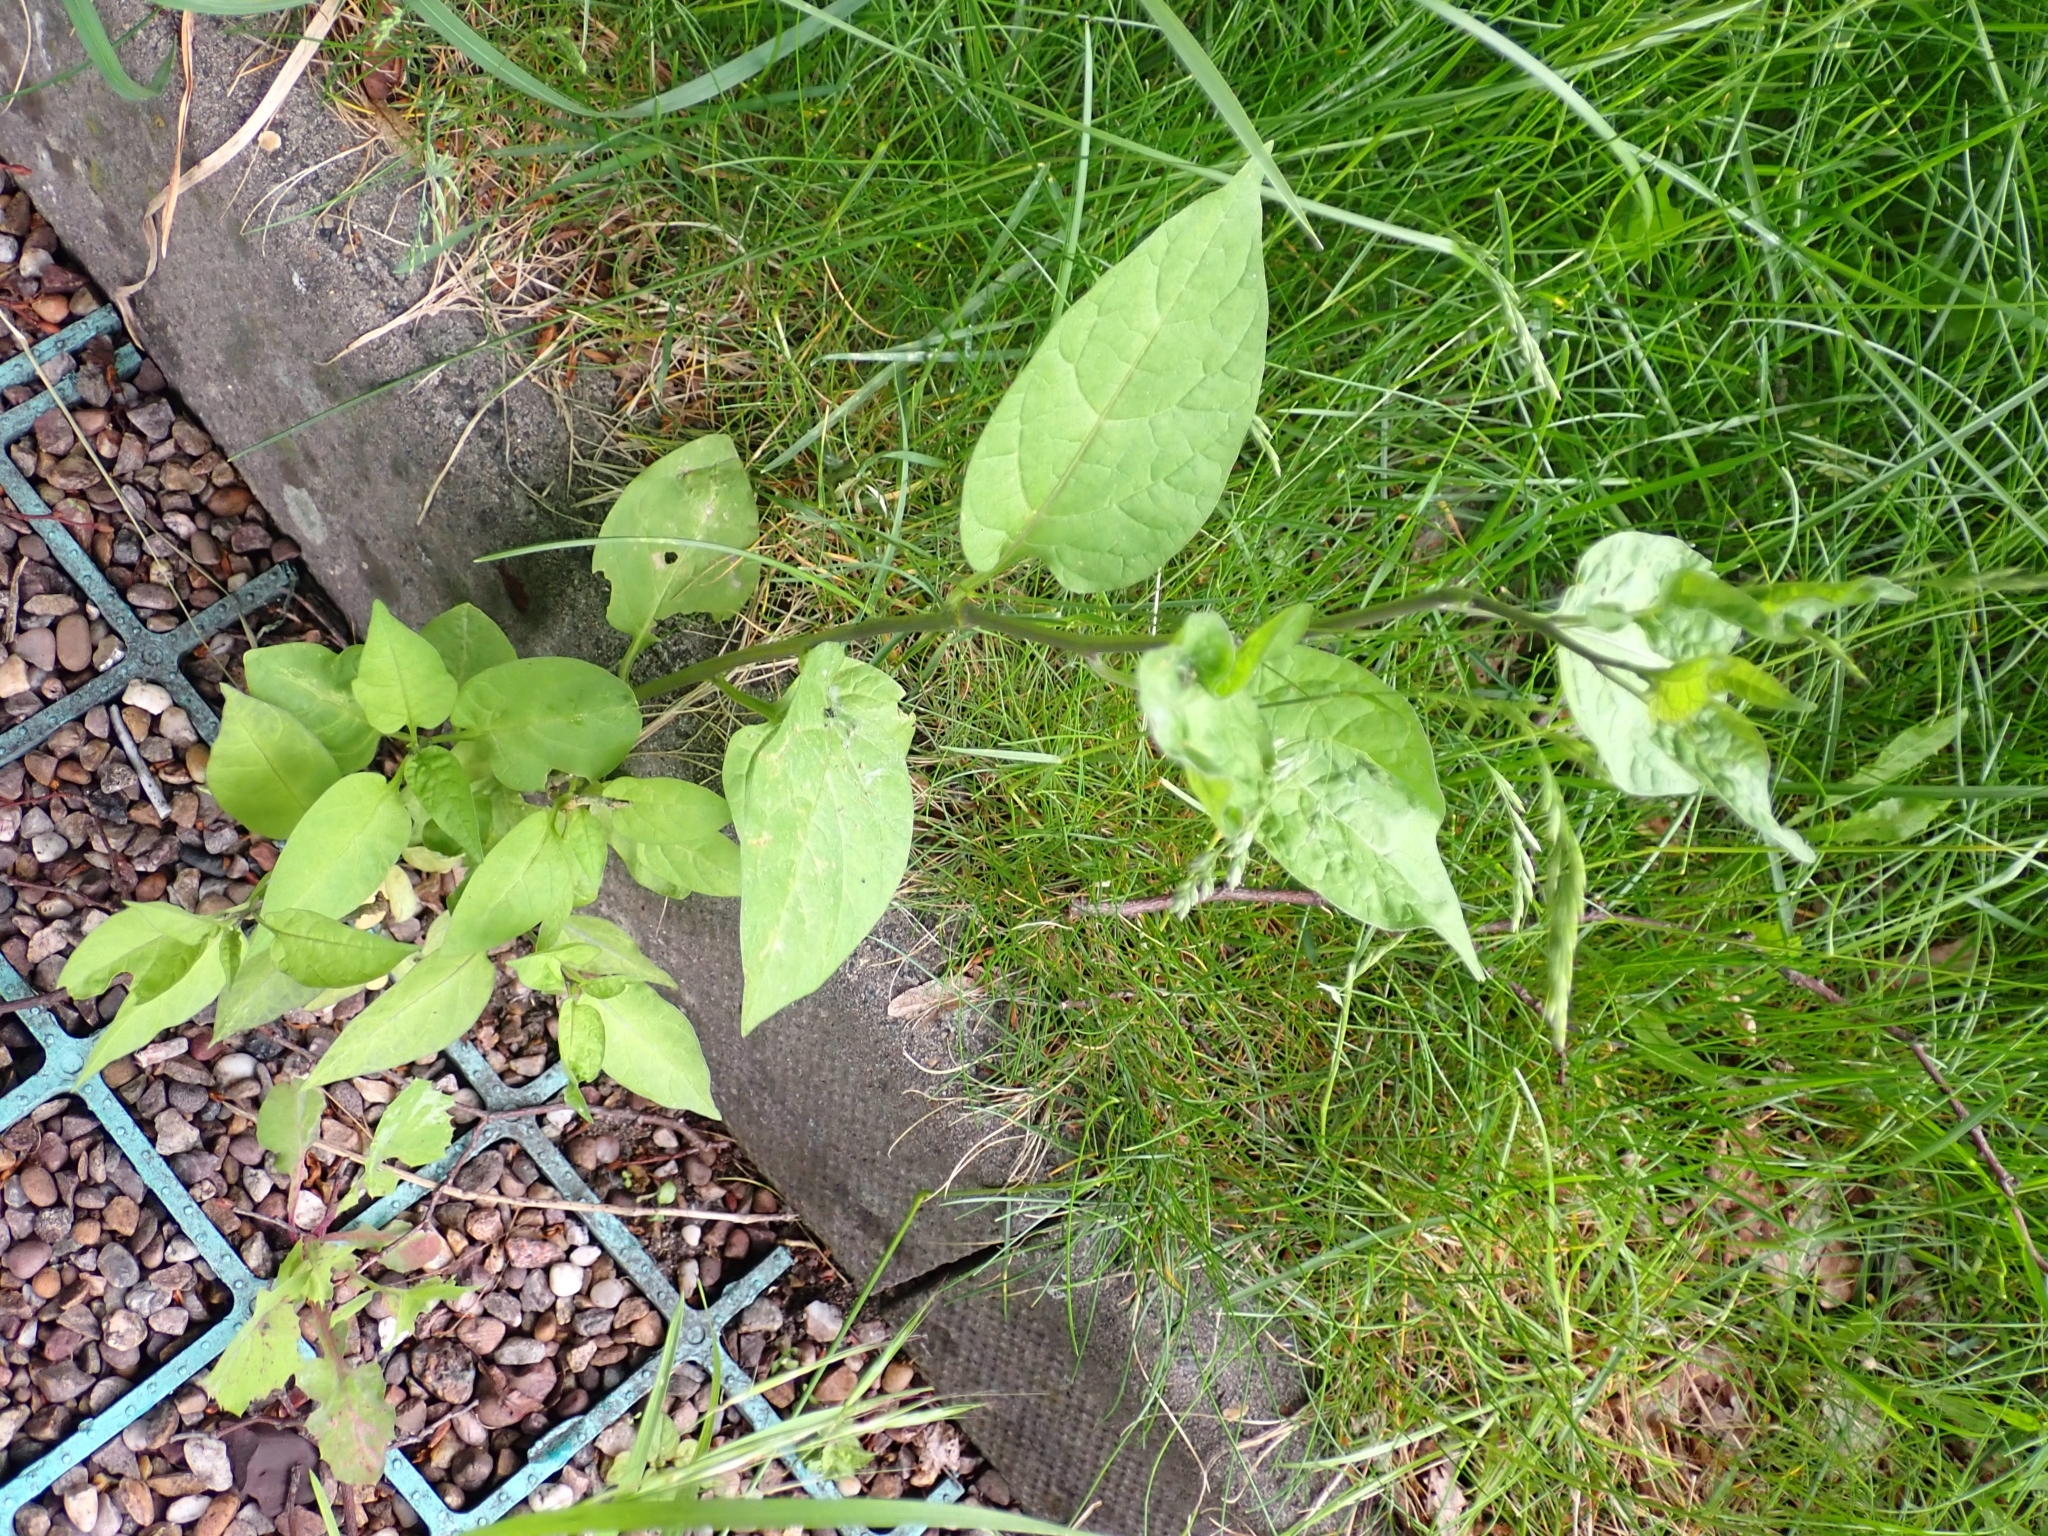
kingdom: Plantae
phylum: Tracheophyta
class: Magnoliopsida
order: Solanales
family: Solanaceae
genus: Solanum
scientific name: Solanum dulcamara
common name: Climbing nightshade
